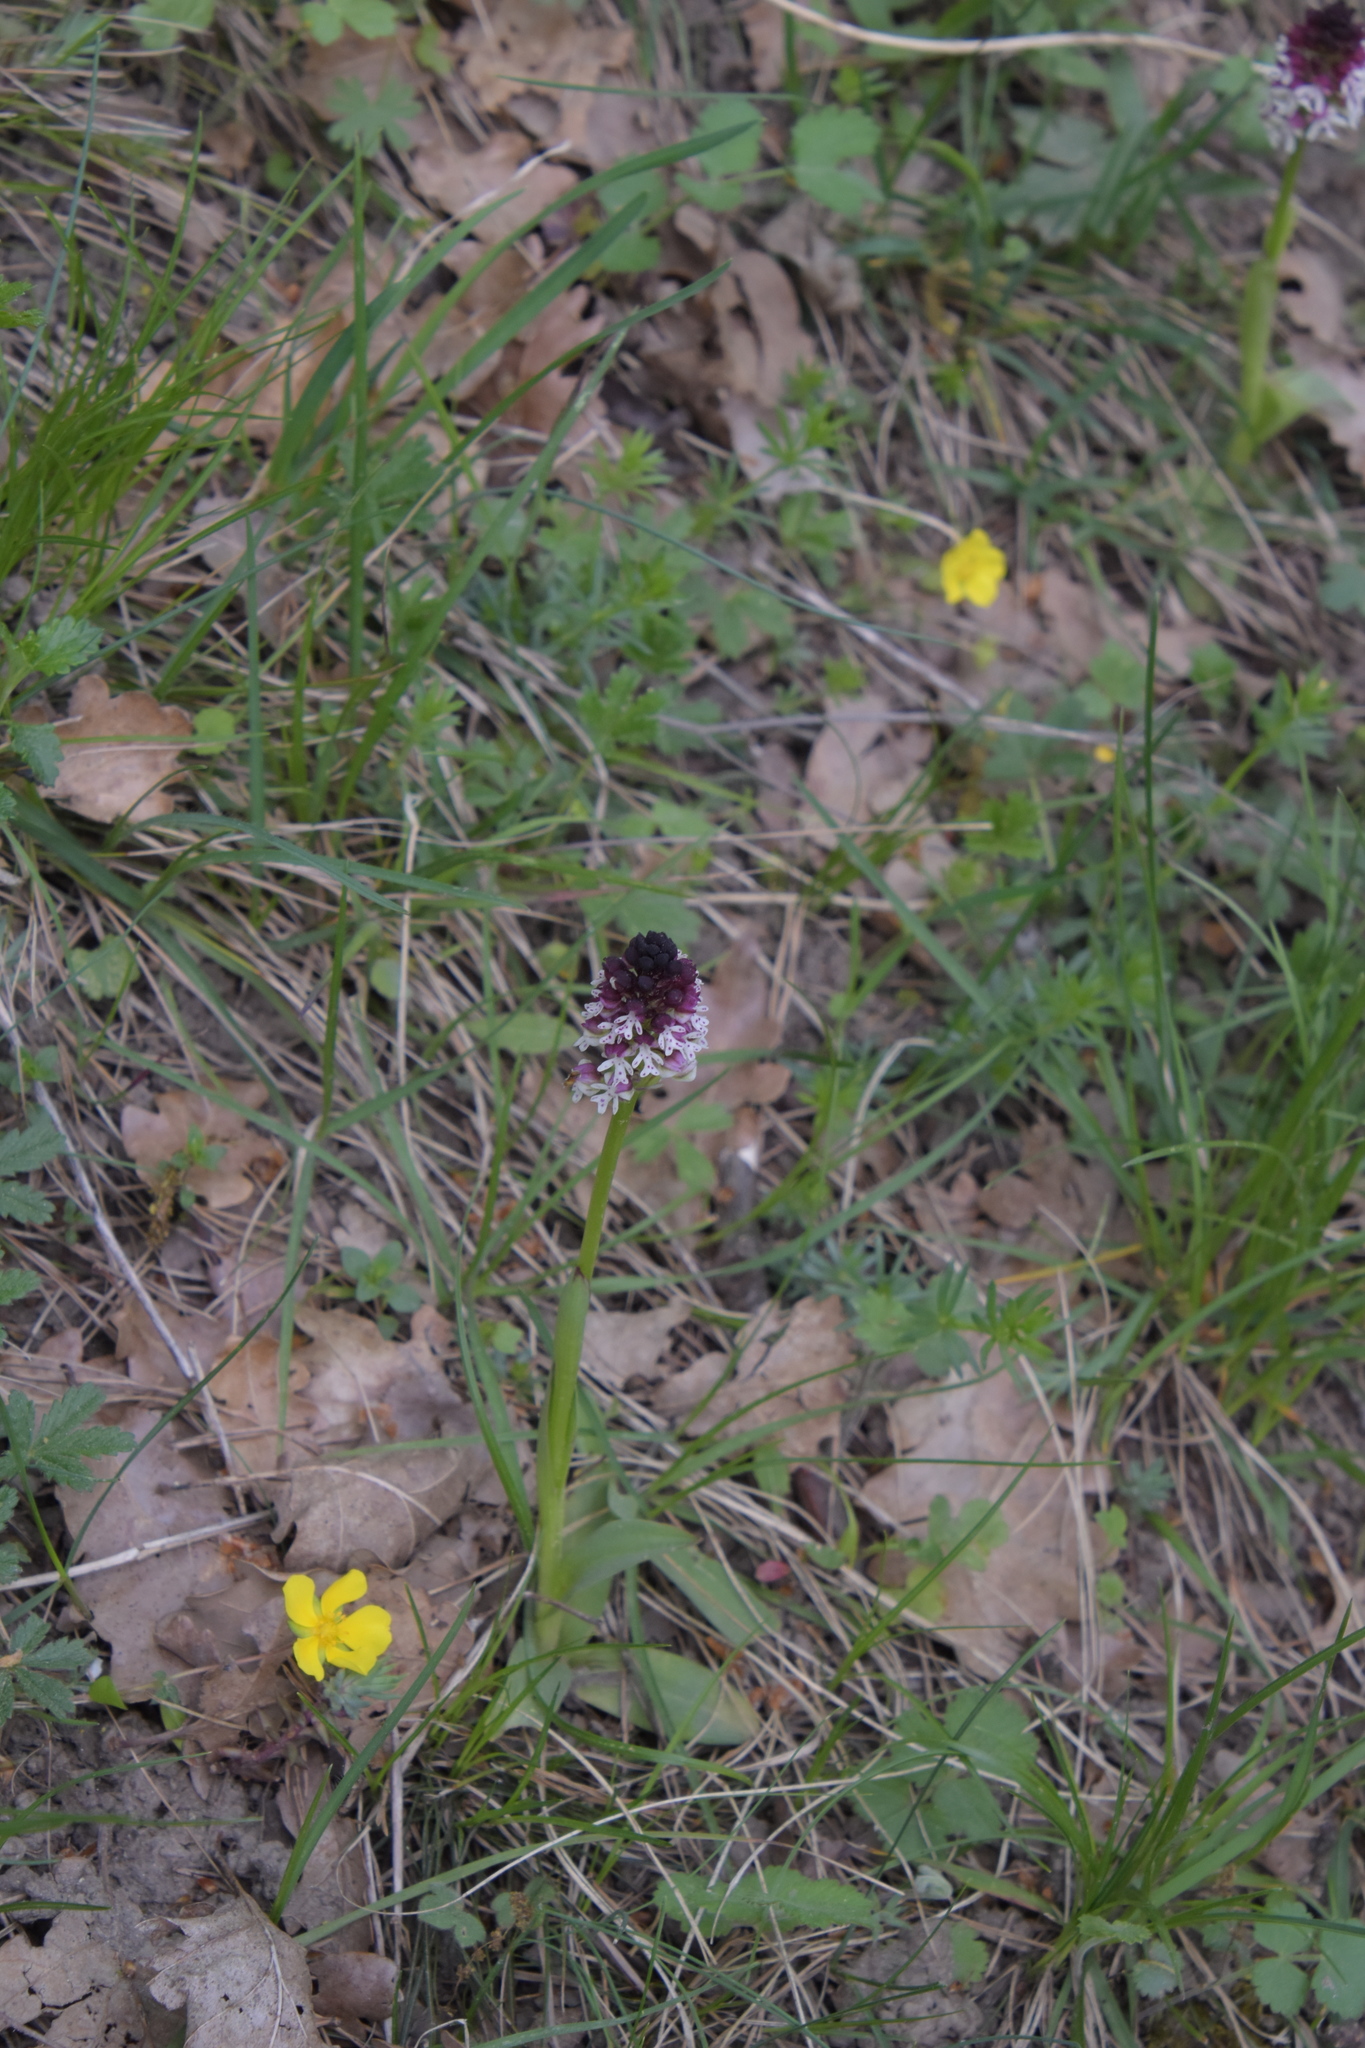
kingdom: Plantae
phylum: Tracheophyta
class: Liliopsida
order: Asparagales
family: Orchidaceae
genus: Neotinea
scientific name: Neotinea ustulata
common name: Burnt orchid
